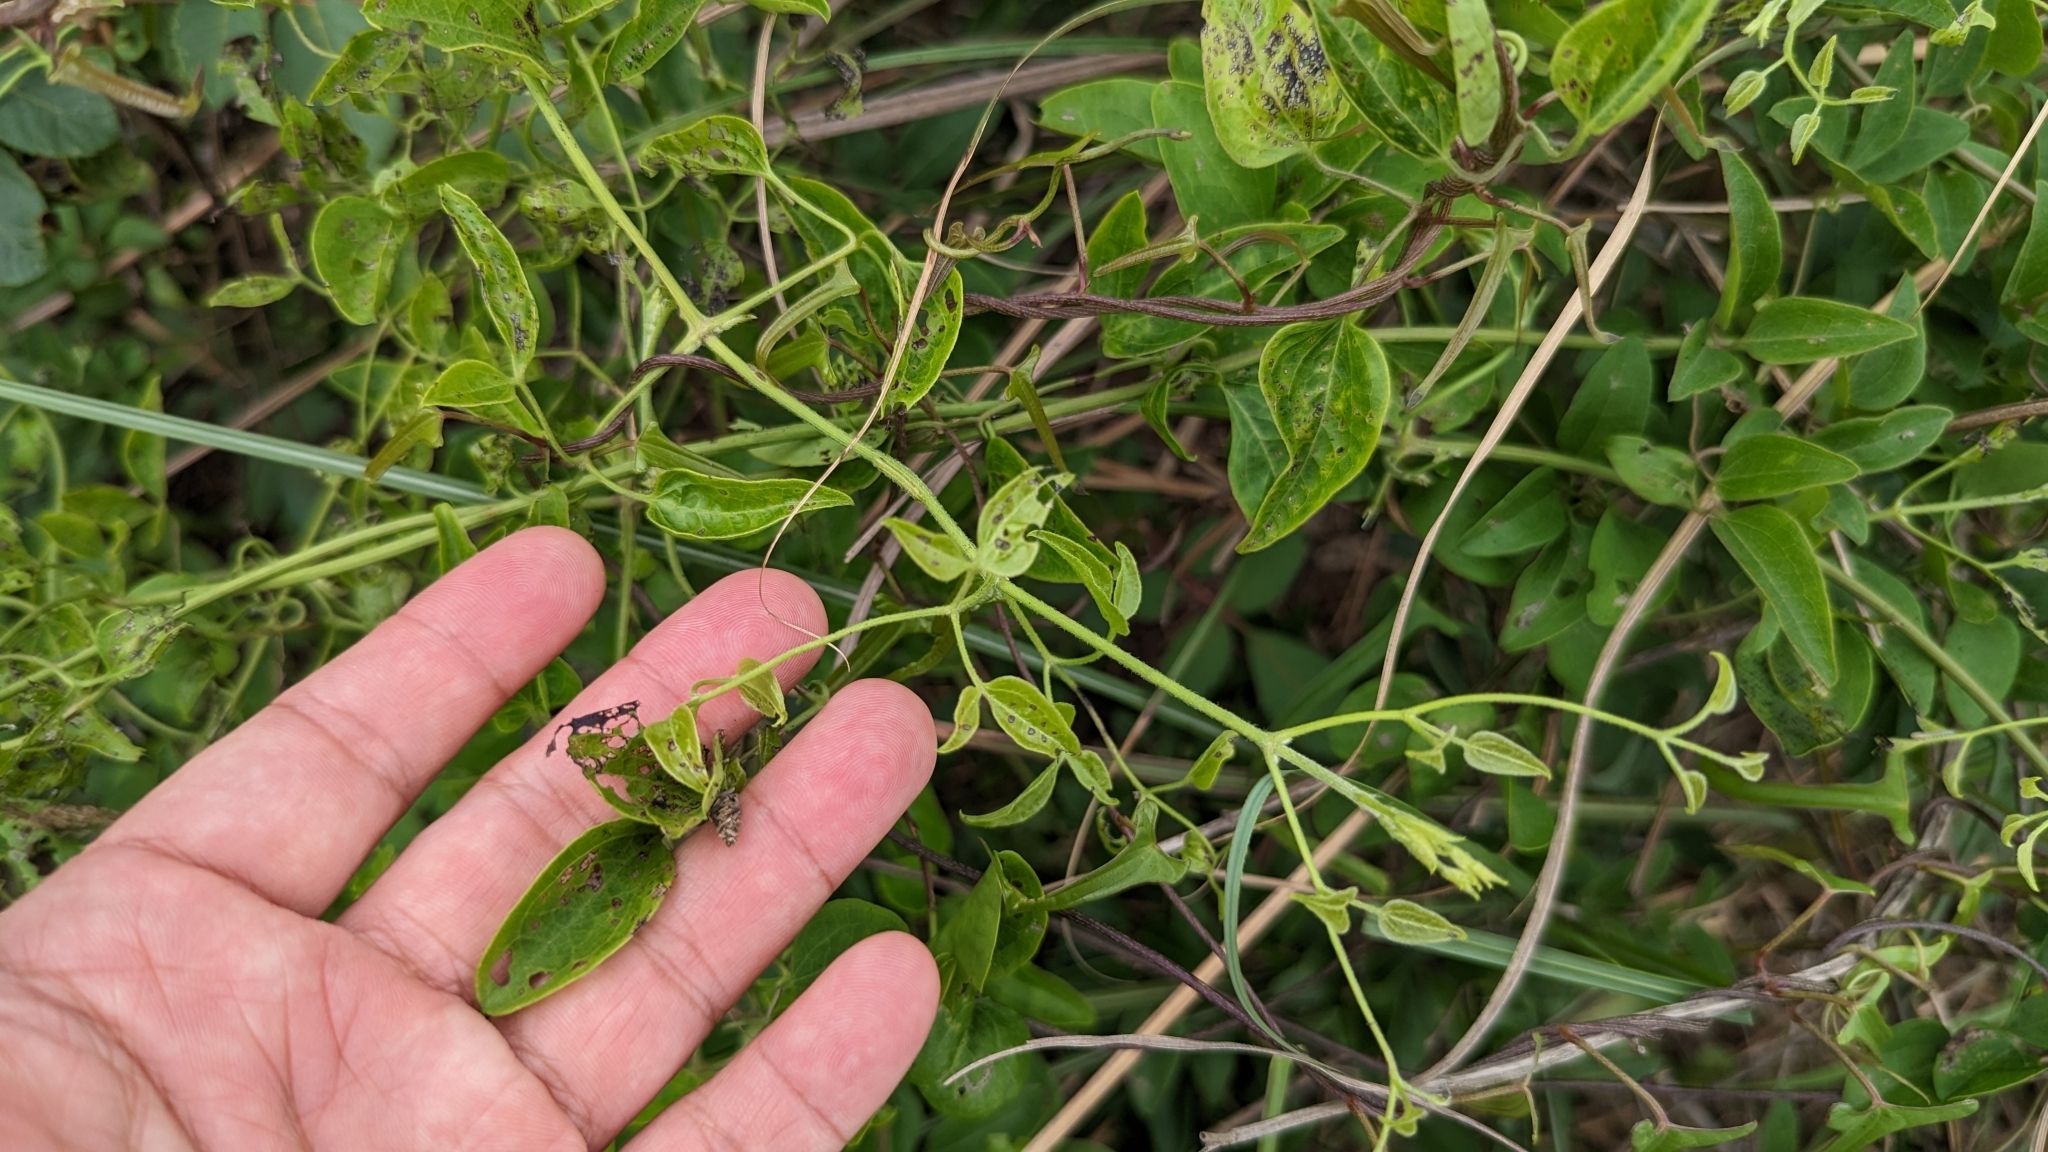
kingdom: Plantae
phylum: Tracheophyta
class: Magnoliopsida
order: Ranunculales
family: Ranunculaceae
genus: Clematis
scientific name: Clematis chinensis
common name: Chinese clematis
